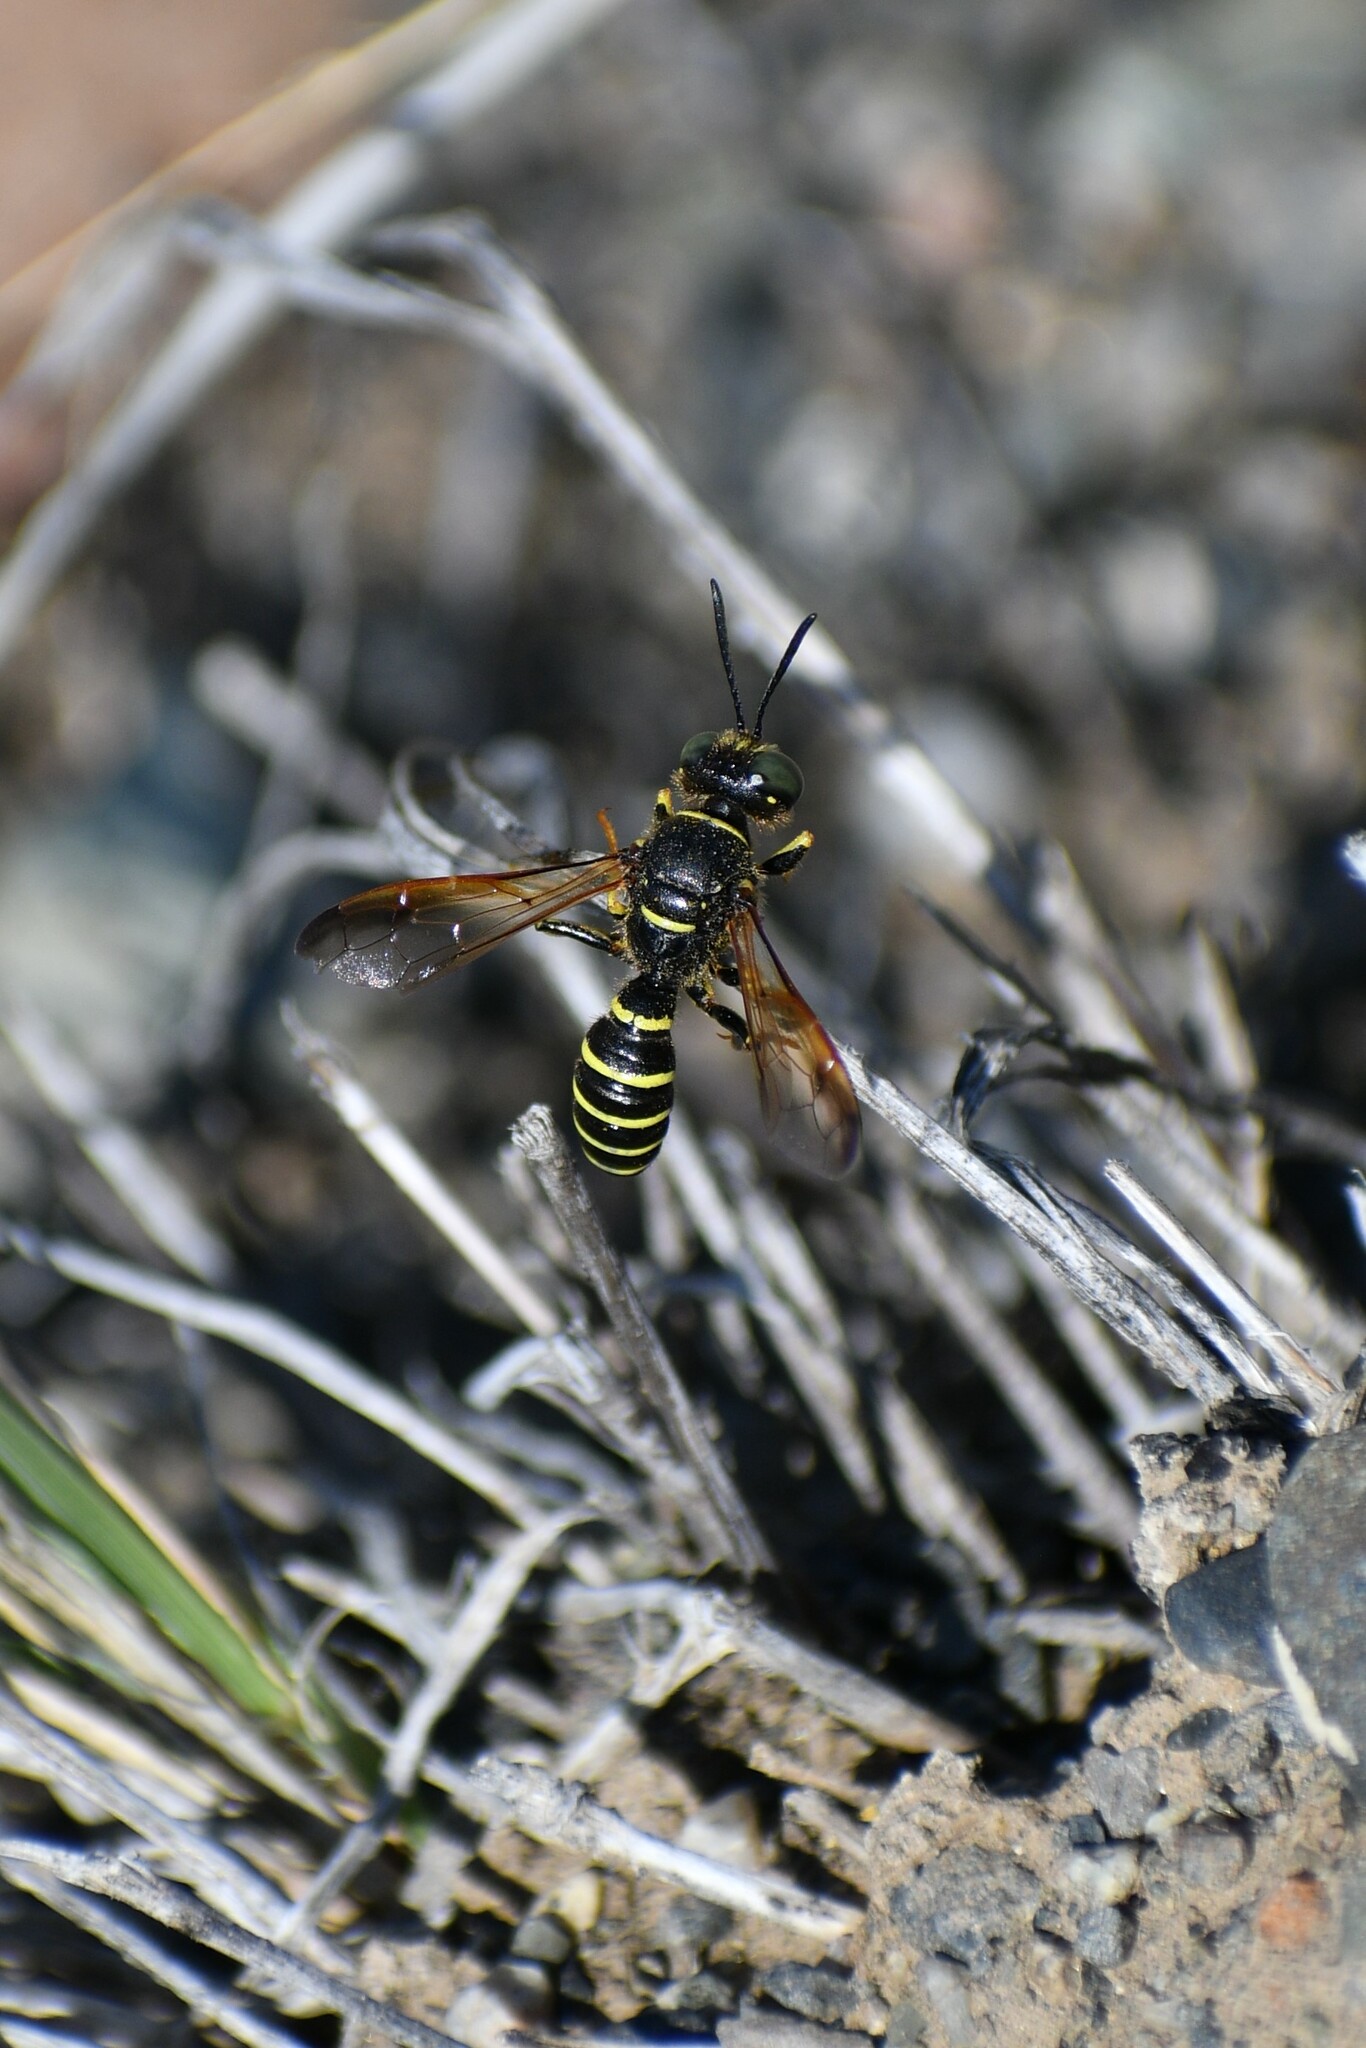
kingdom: Animalia
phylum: Arthropoda
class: Insecta
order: Hymenoptera
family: Crabronidae
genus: Eucerceris
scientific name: Eucerceris flavocincta
